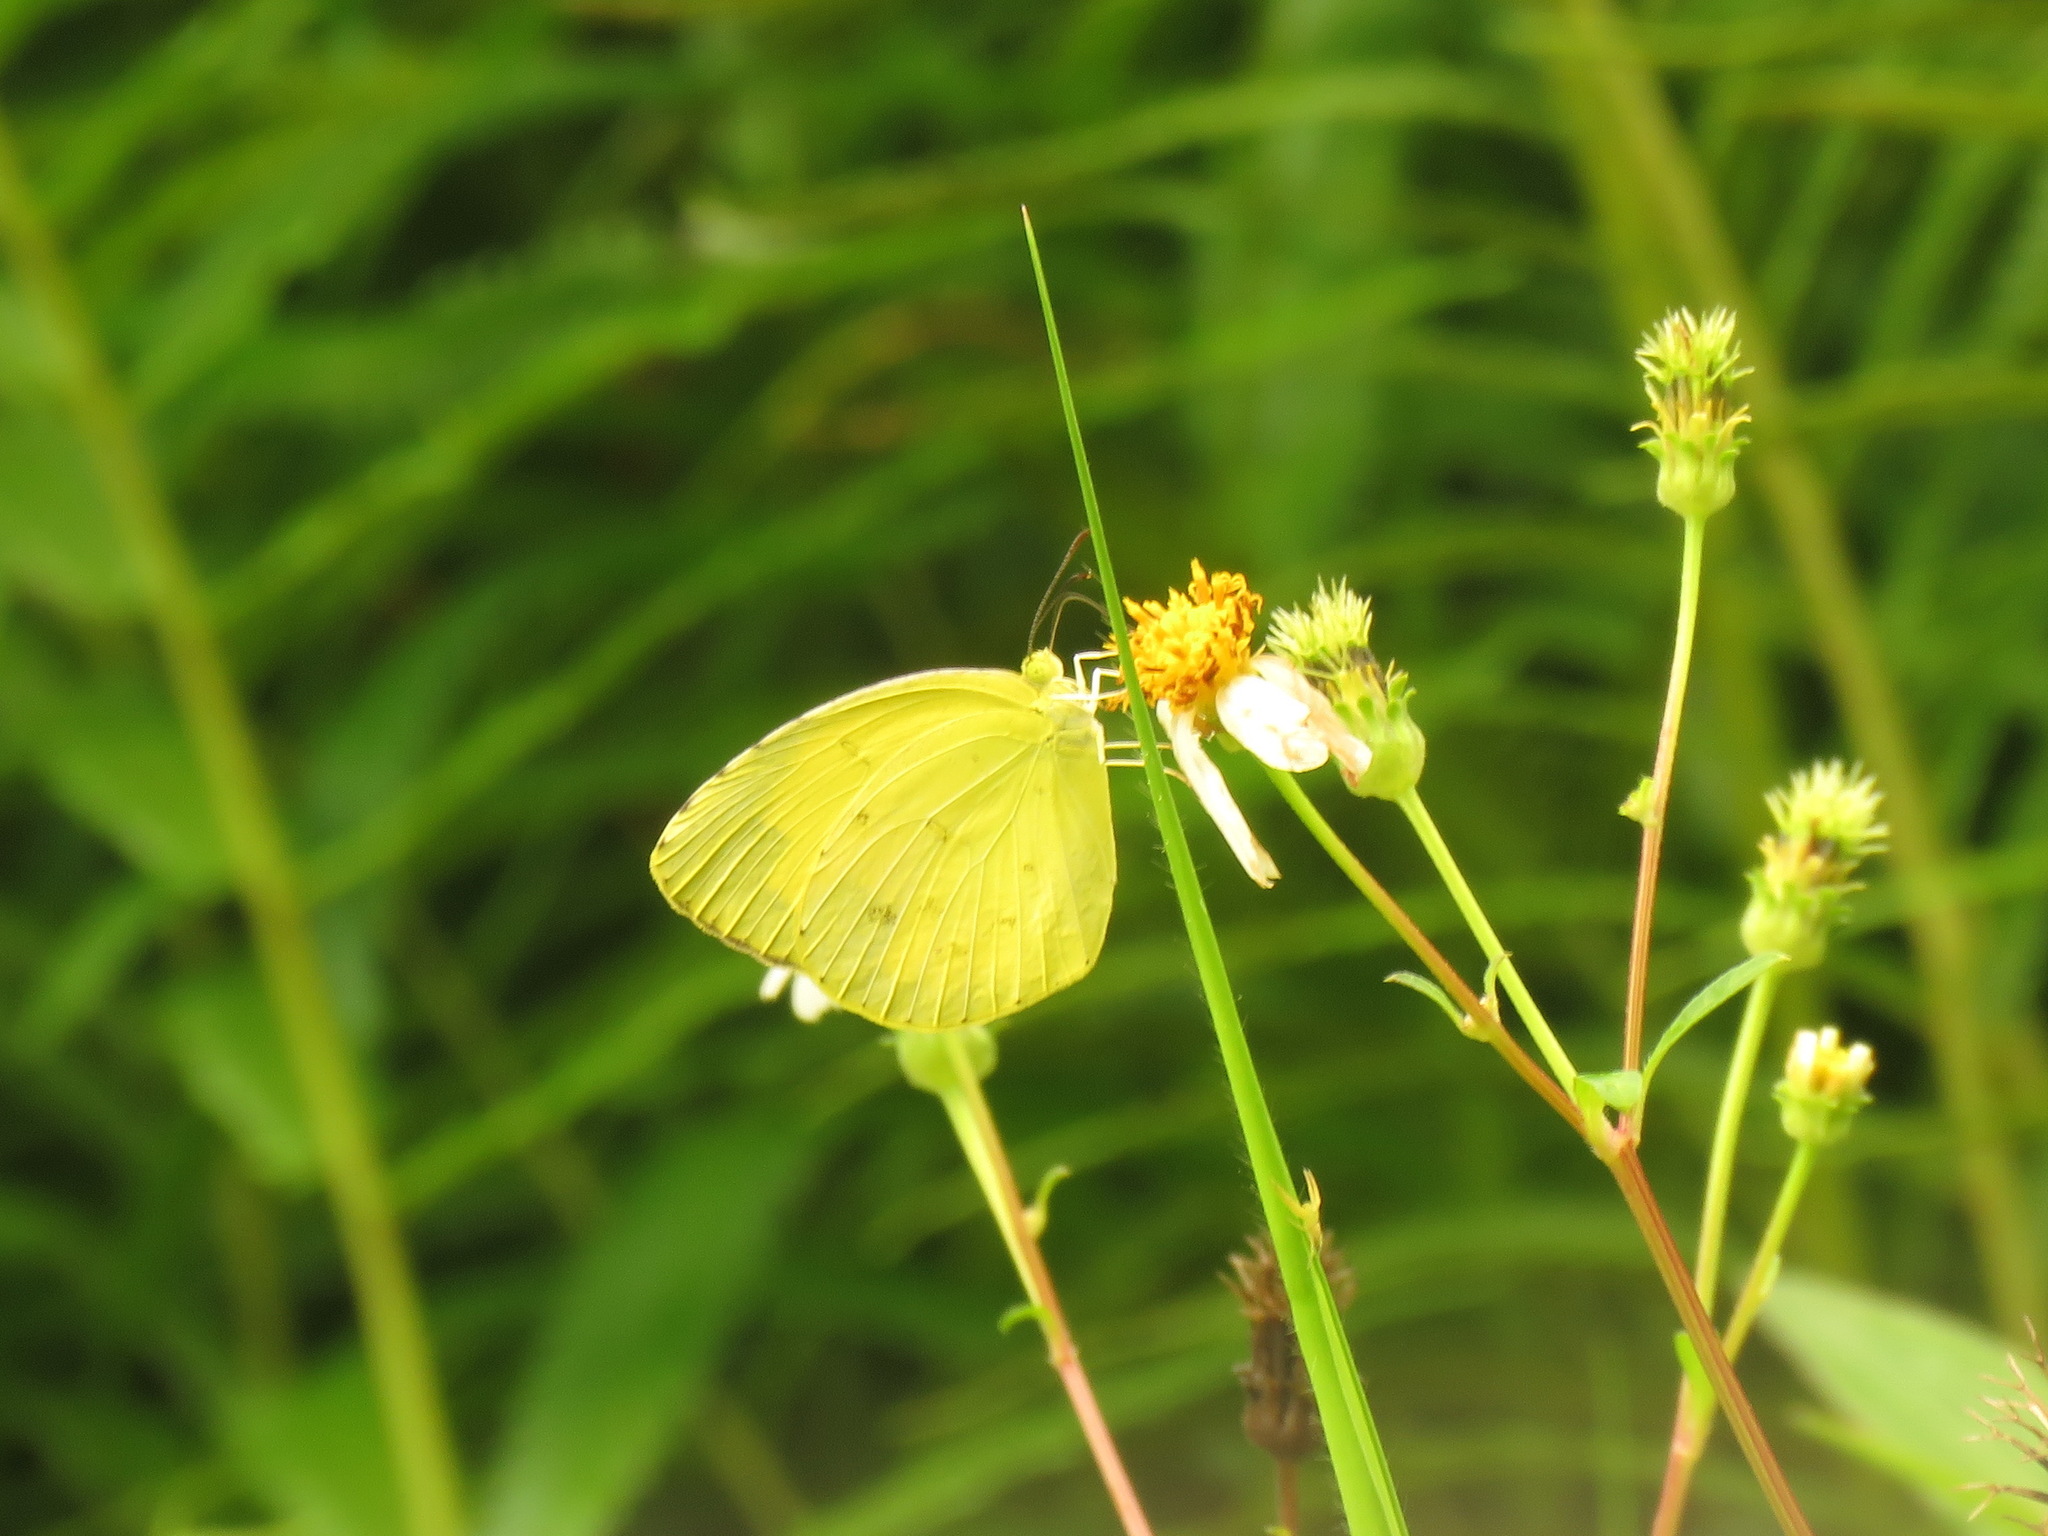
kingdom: Animalia
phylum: Arthropoda
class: Insecta
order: Lepidoptera
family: Pieridae
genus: Eurema
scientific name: Eurema hecabe
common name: Pale grass yellow
